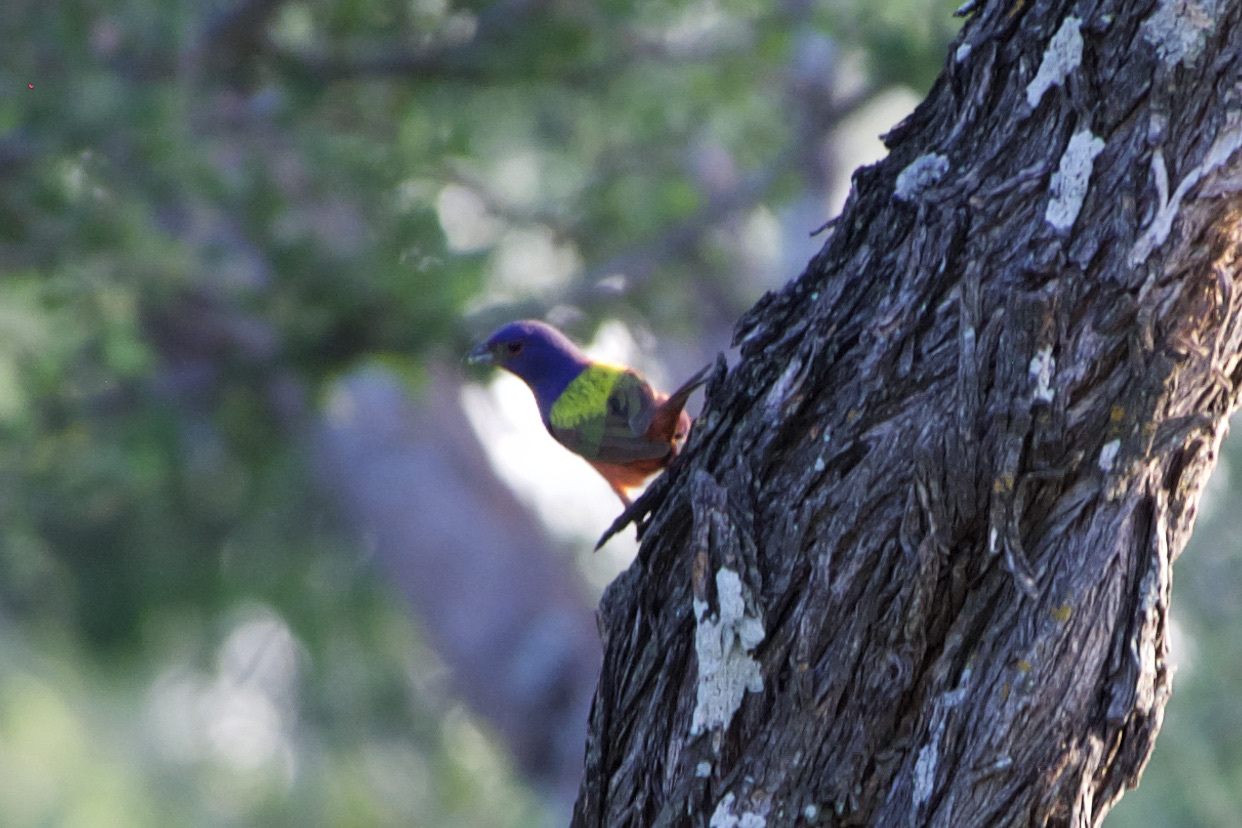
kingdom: Animalia
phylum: Chordata
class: Aves
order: Passeriformes
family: Cardinalidae
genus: Passerina
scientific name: Passerina ciris
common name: Painted bunting
